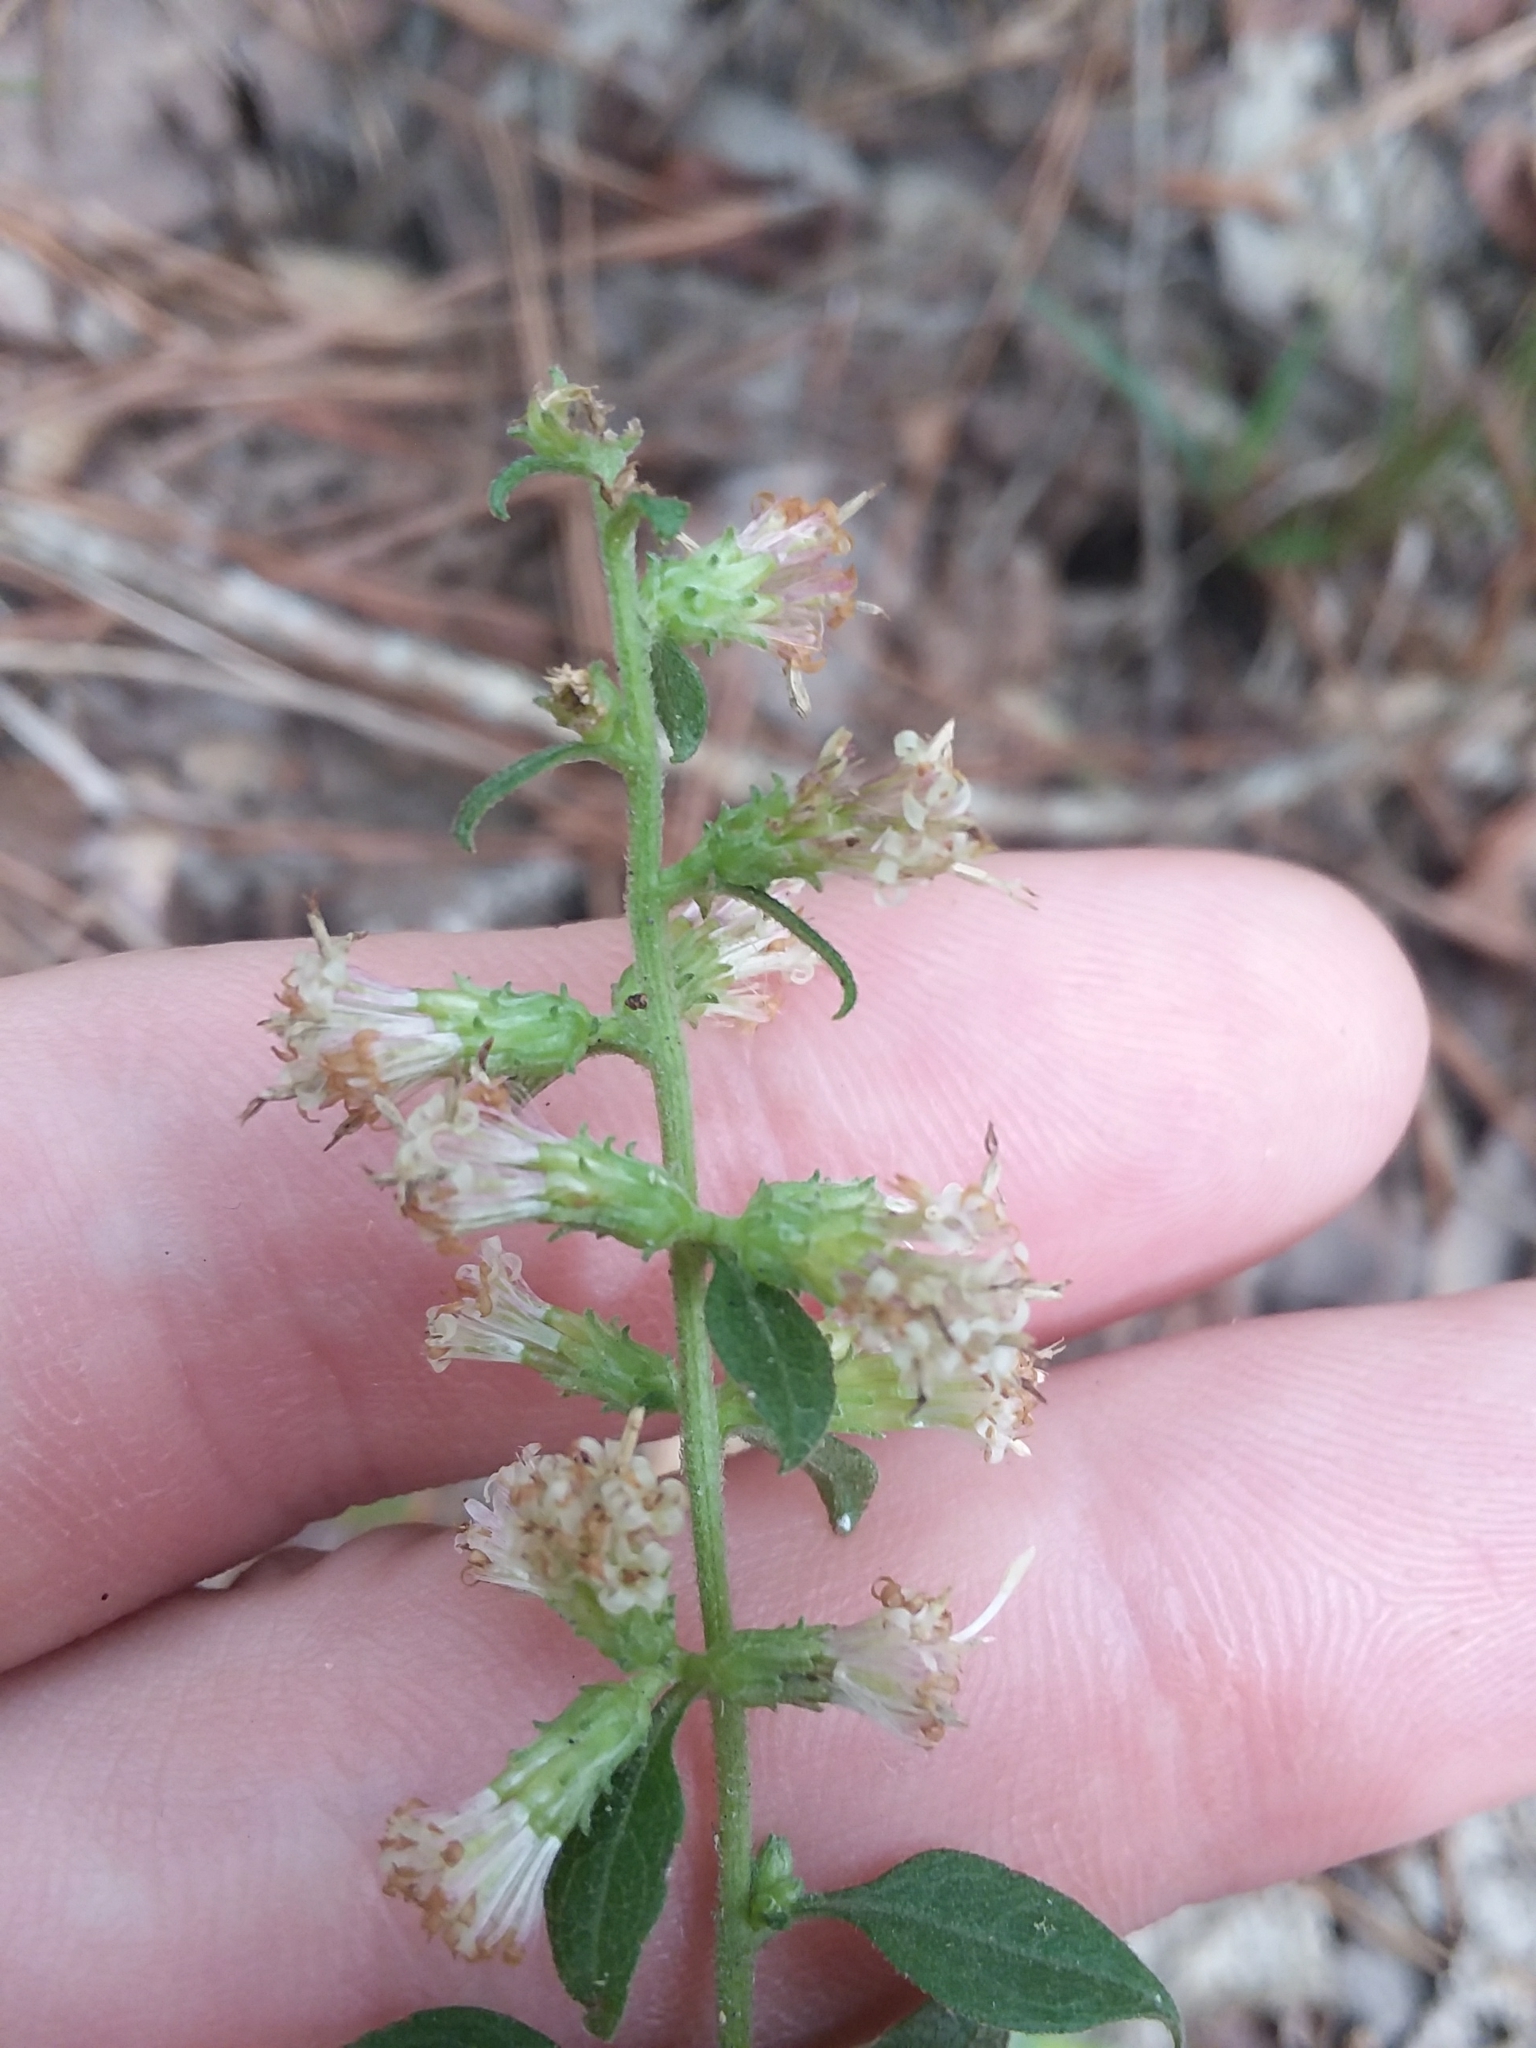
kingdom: Plantae
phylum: Tracheophyta
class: Magnoliopsida
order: Asterales
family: Asteraceae
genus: Solidago
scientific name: Solidago discoidea
